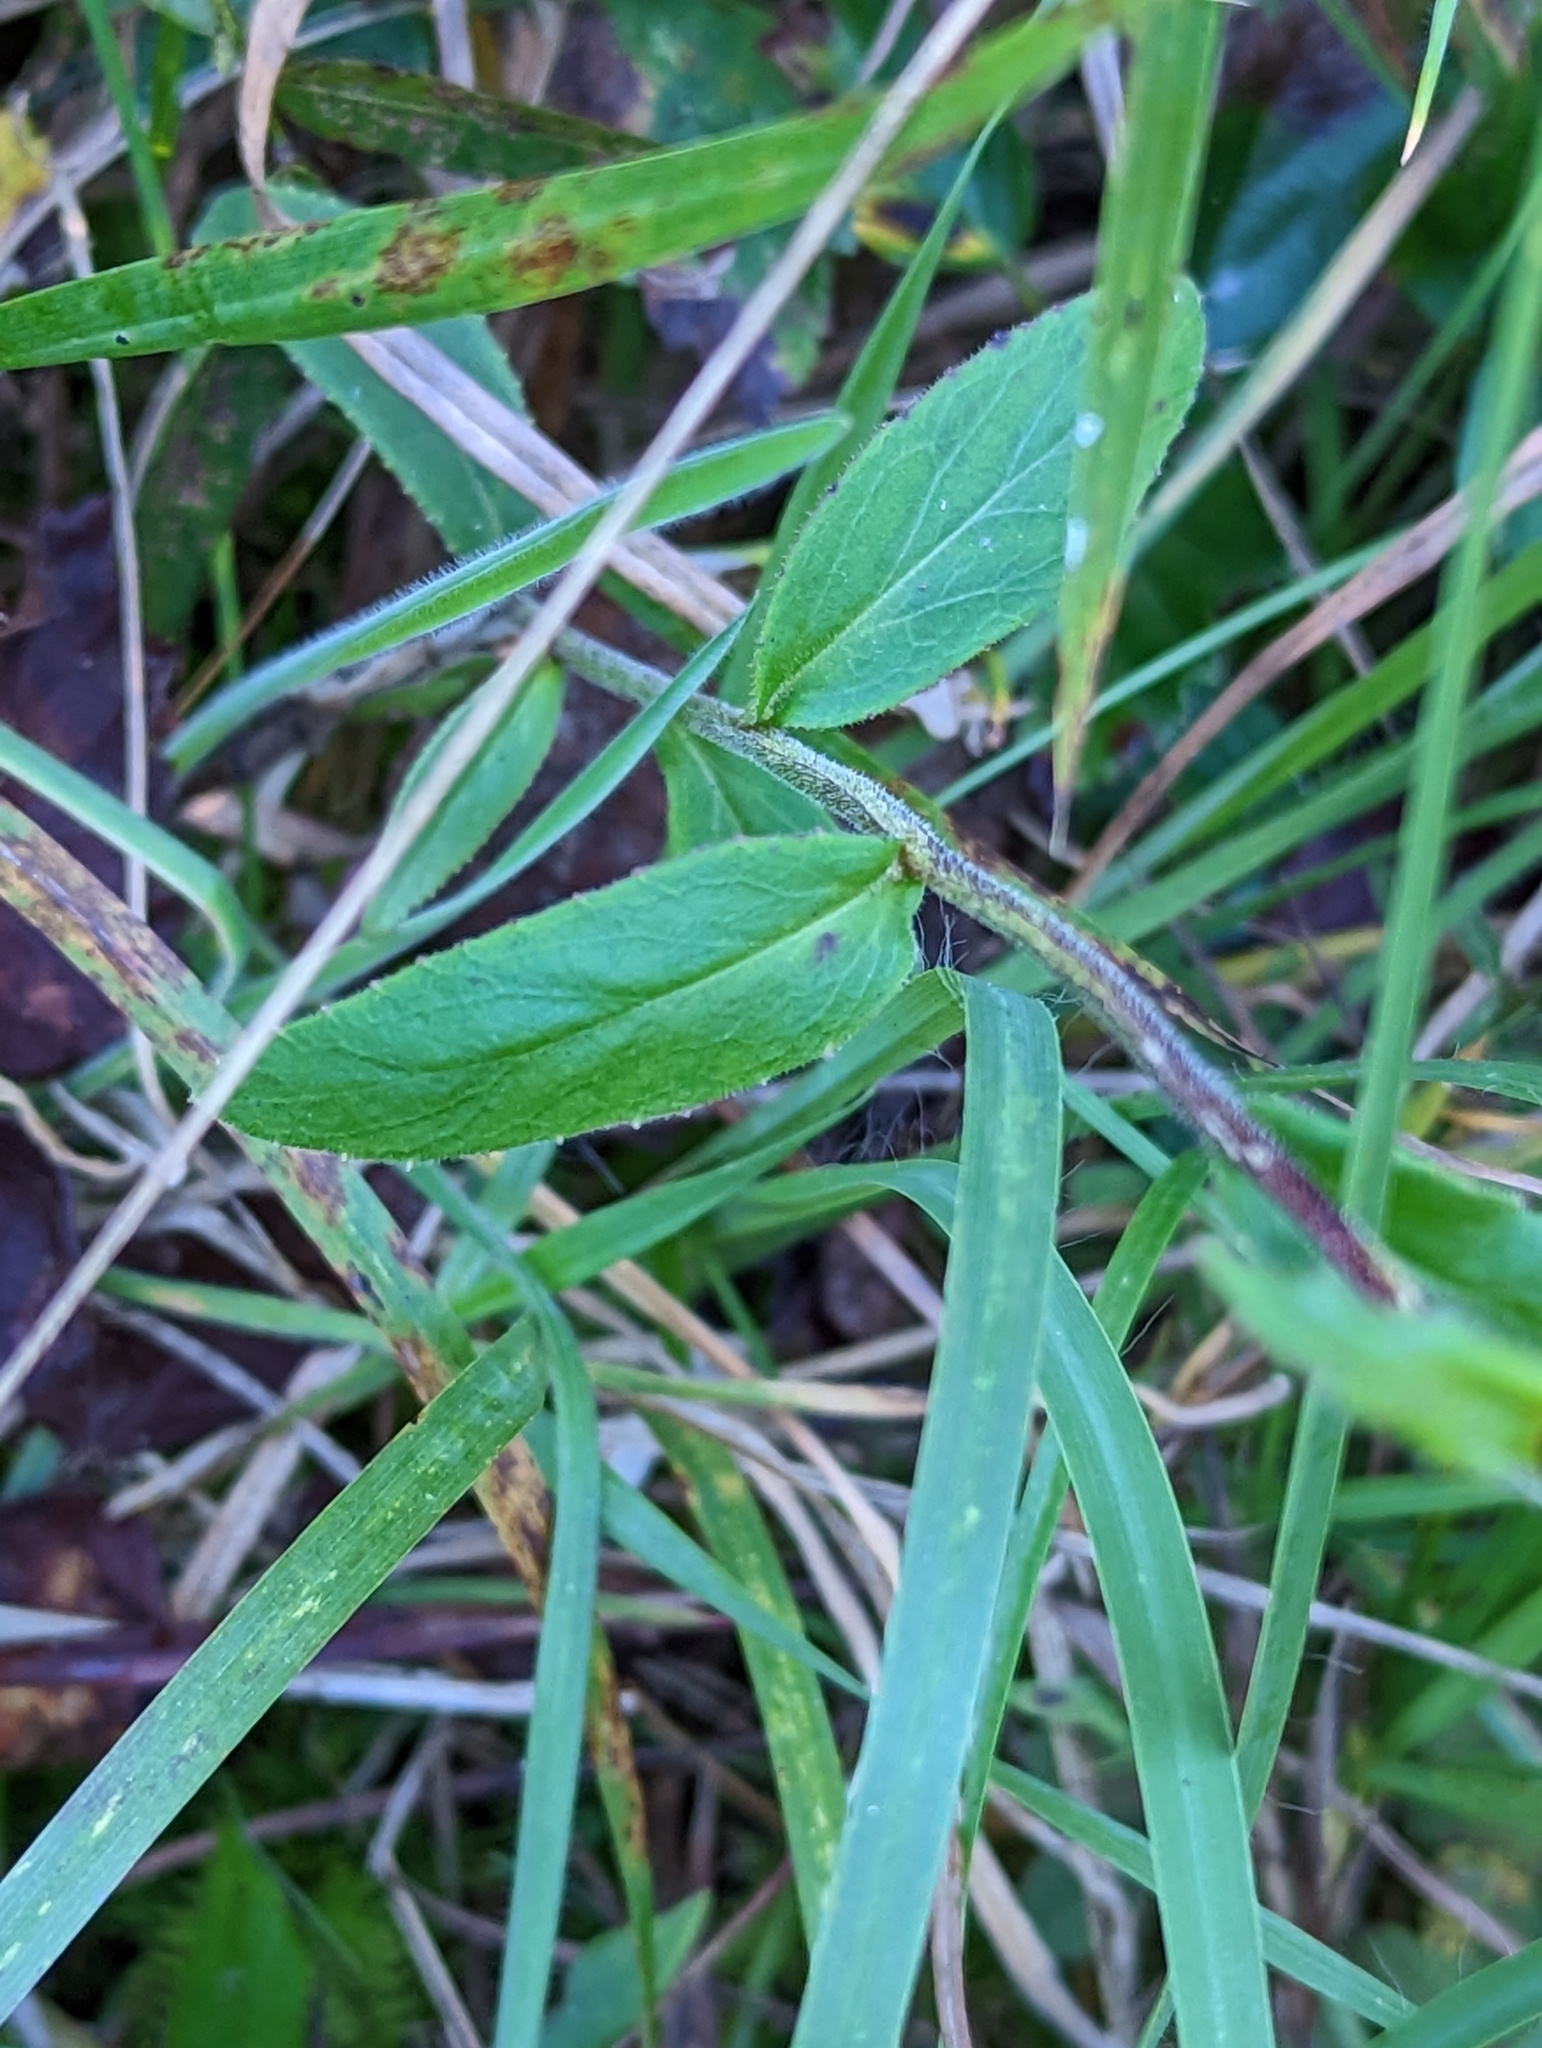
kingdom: Plantae
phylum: Tracheophyta
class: Magnoliopsida
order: Asterales
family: Campanulaceae
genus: Lobelia
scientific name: Lobelia puberula
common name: Purple dewdrop
